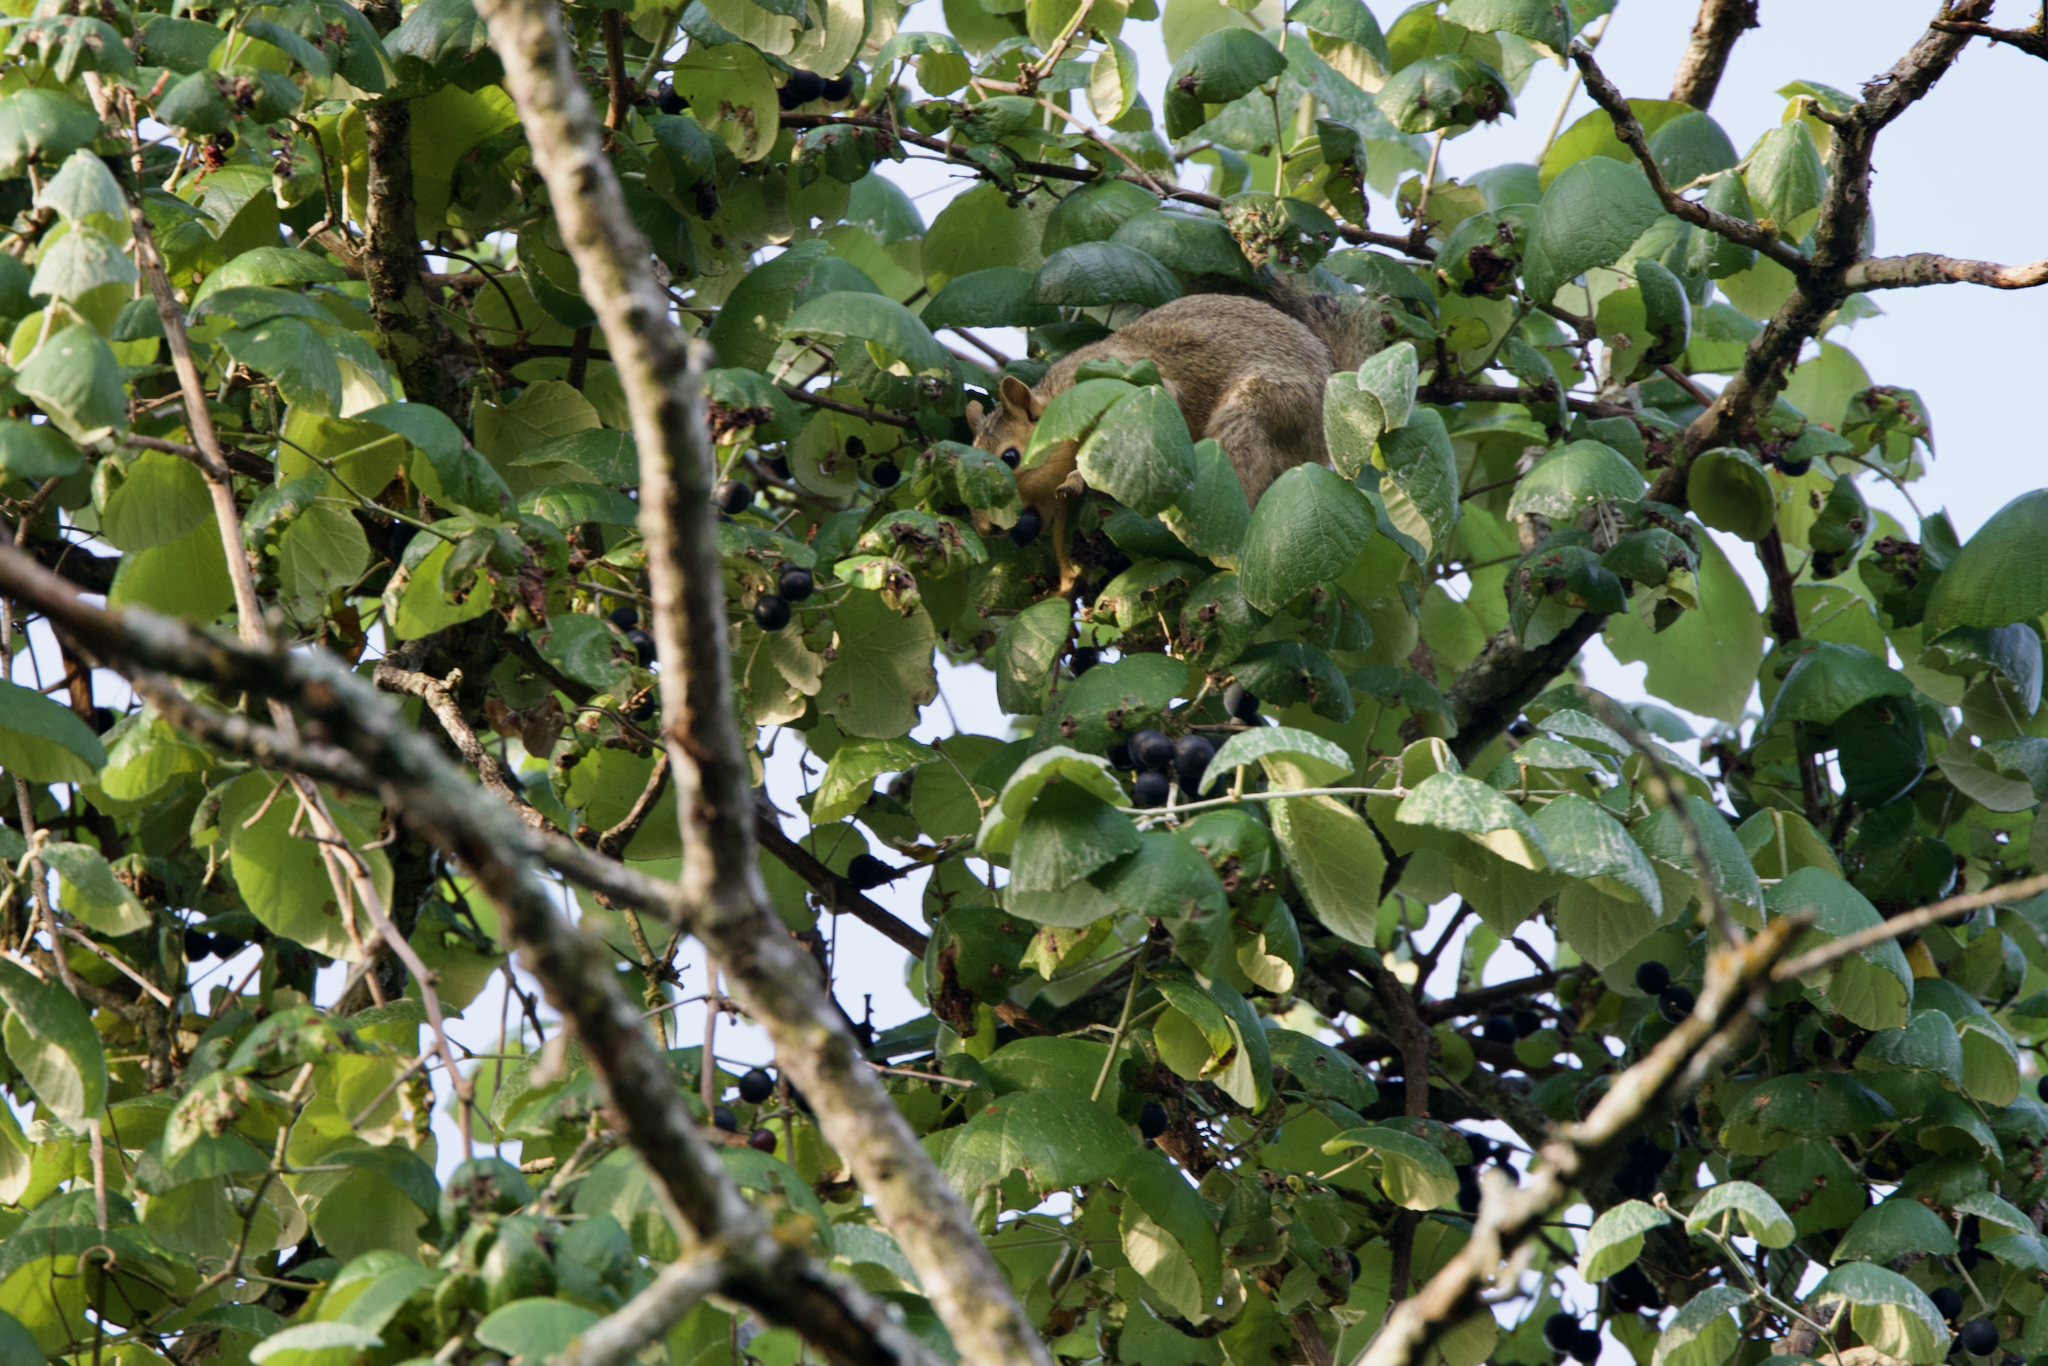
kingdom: Plantae
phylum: Tracheophyta
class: Magnoliopsida
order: Vitales
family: Vitaceae
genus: Vitis
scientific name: Vitis mustangensis
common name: Mustang grape
